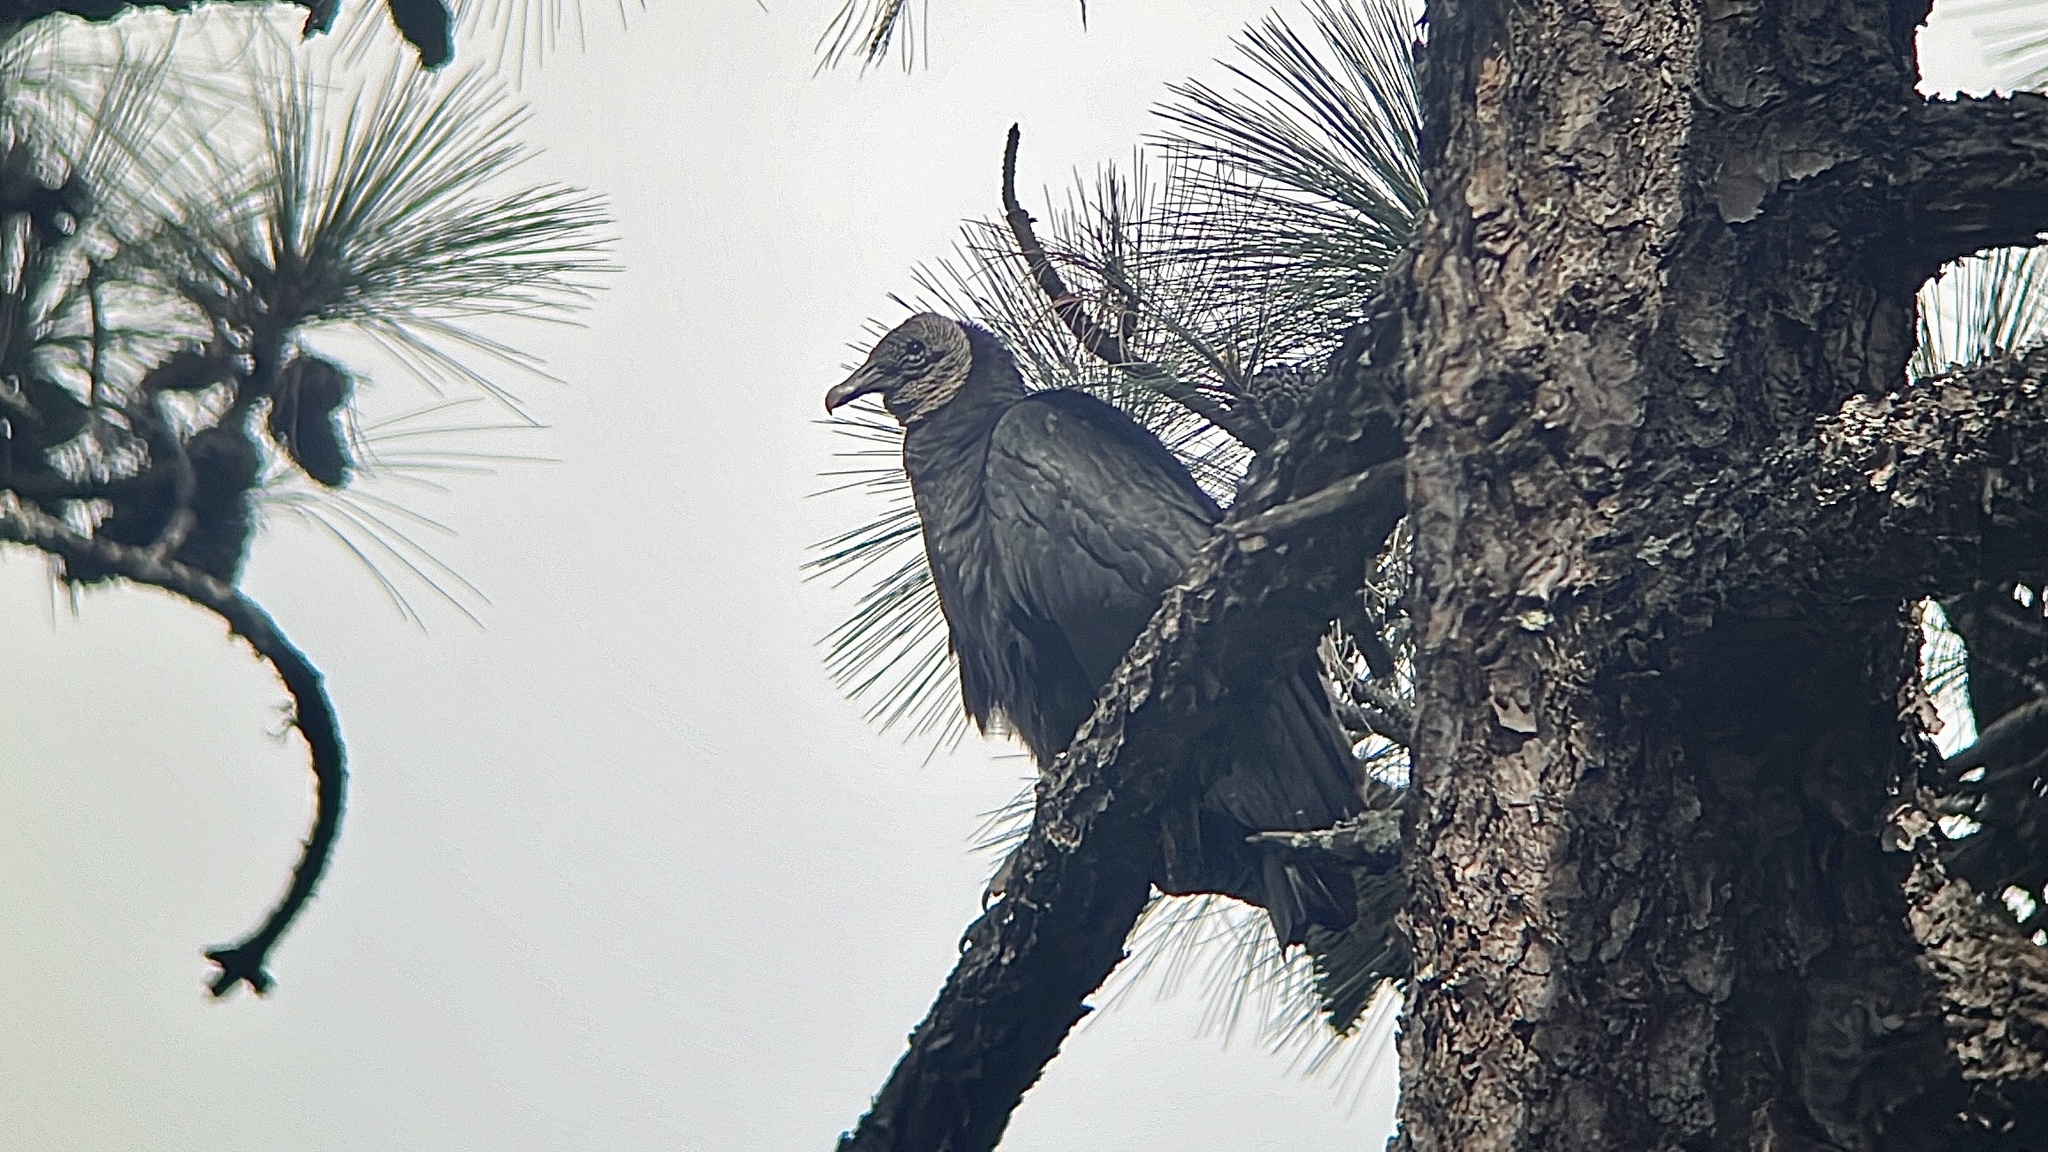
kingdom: Animalia
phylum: Chordata
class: Aves
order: Accipitriformes
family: Cathartidae
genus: Coragyps
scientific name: Coragyps atratus
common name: Black vulture
